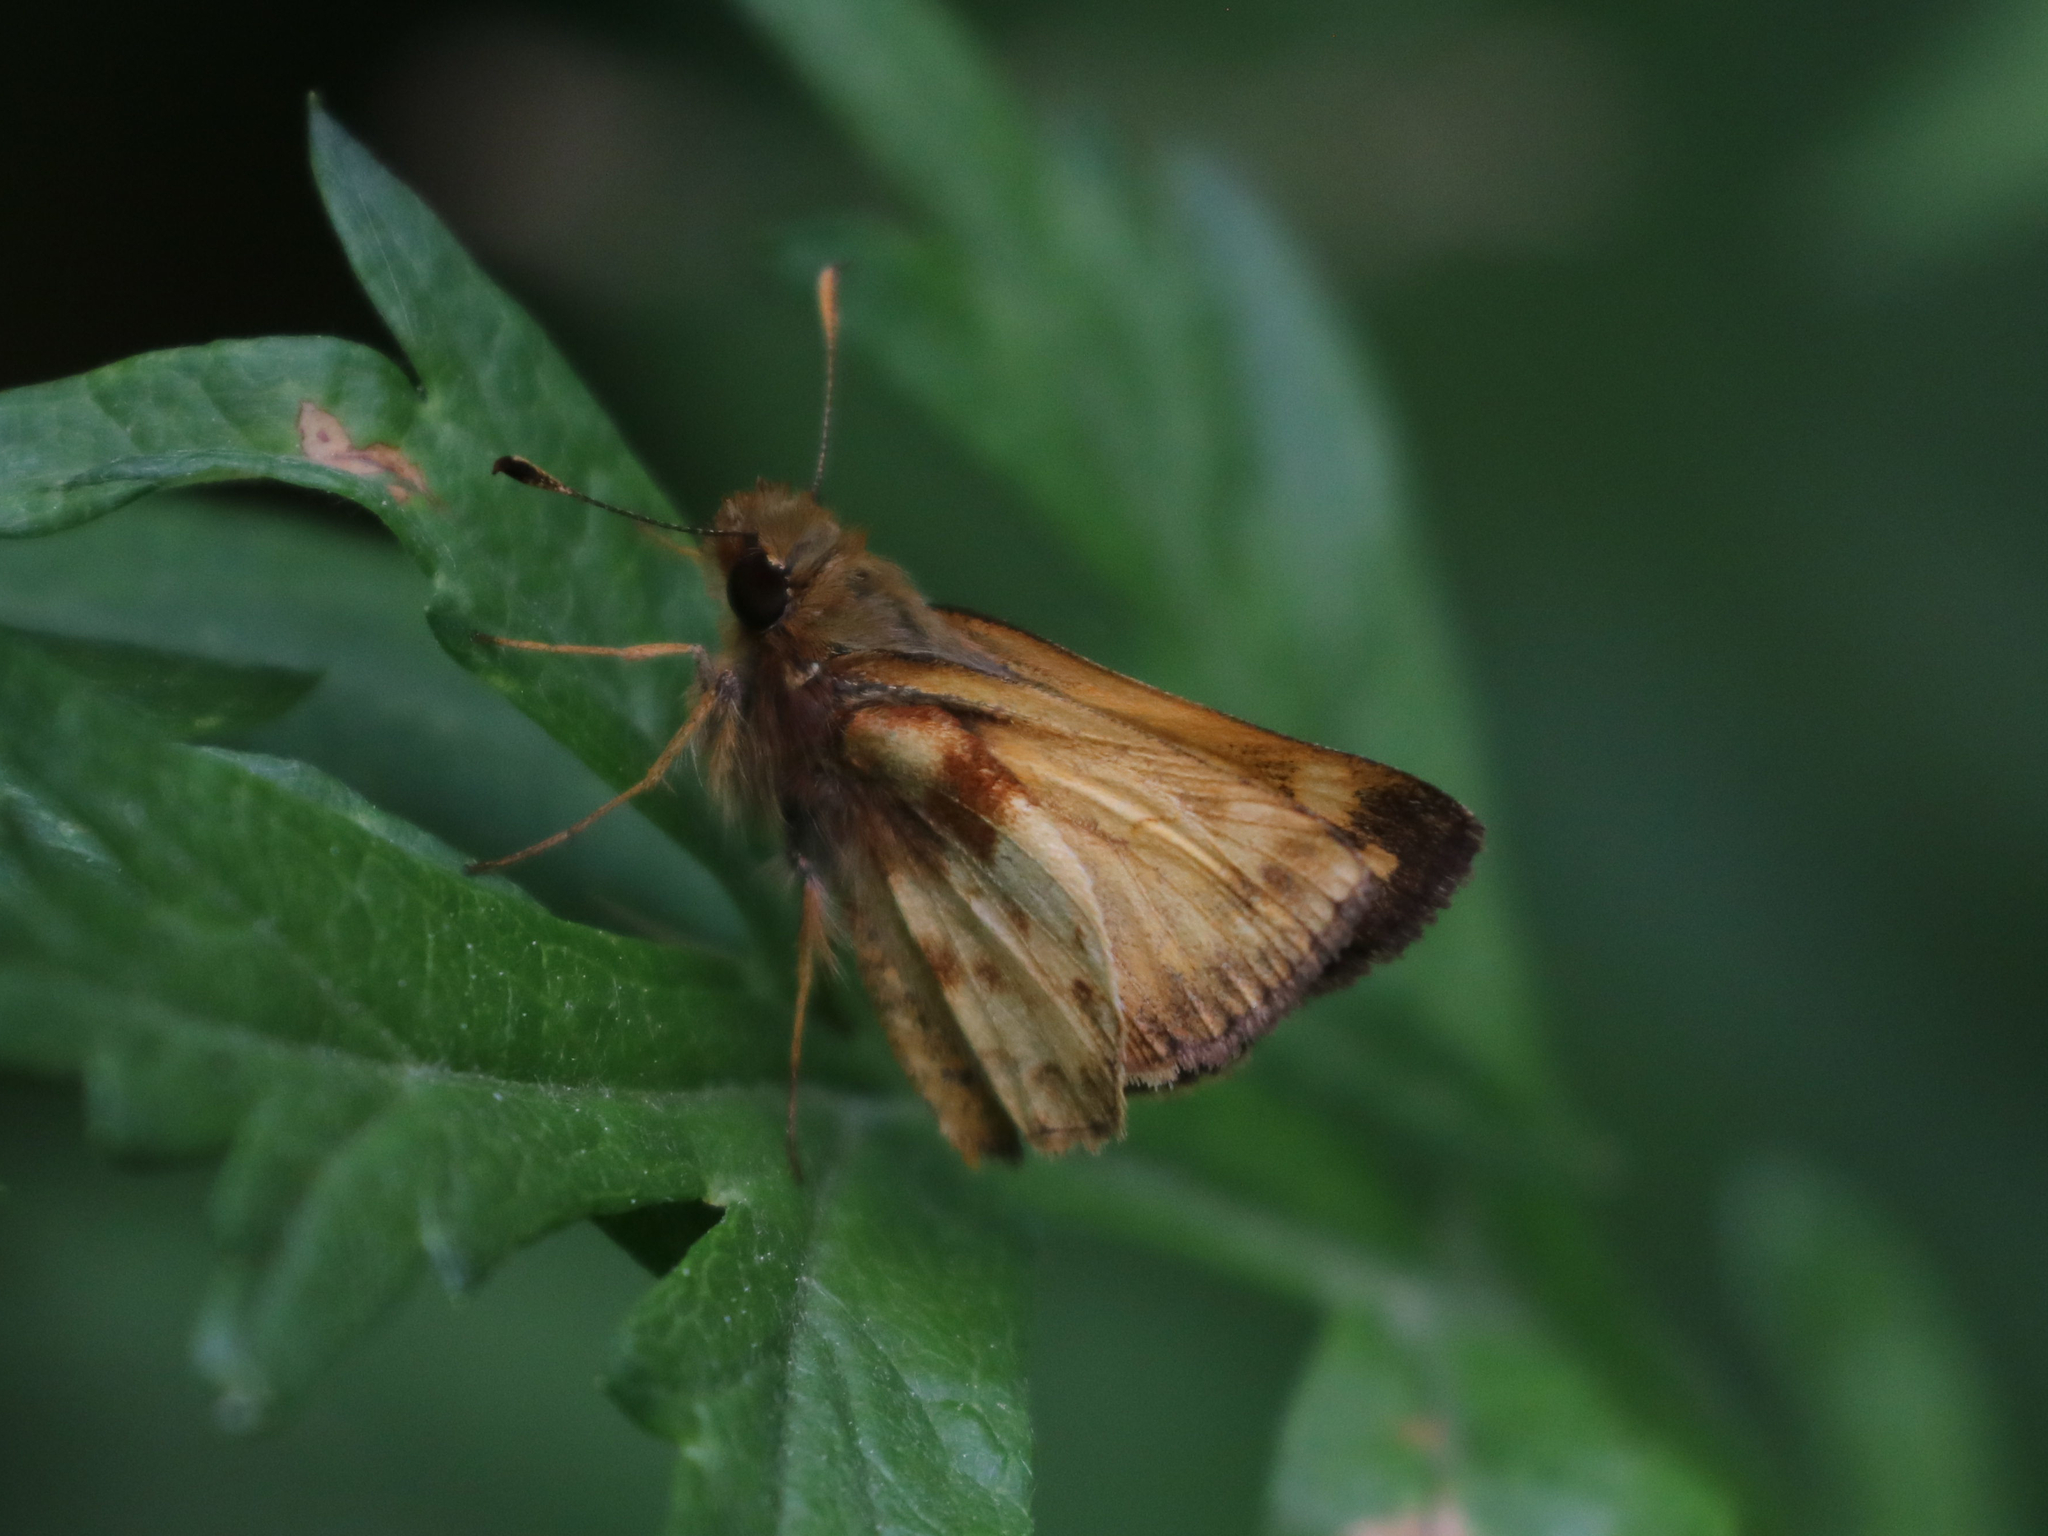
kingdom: Animalia
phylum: Arthropoda
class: Insecta
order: Lepidoptera
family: Hesperiidae
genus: Lon
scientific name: Lon zabulon
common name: Zabulon skipper
